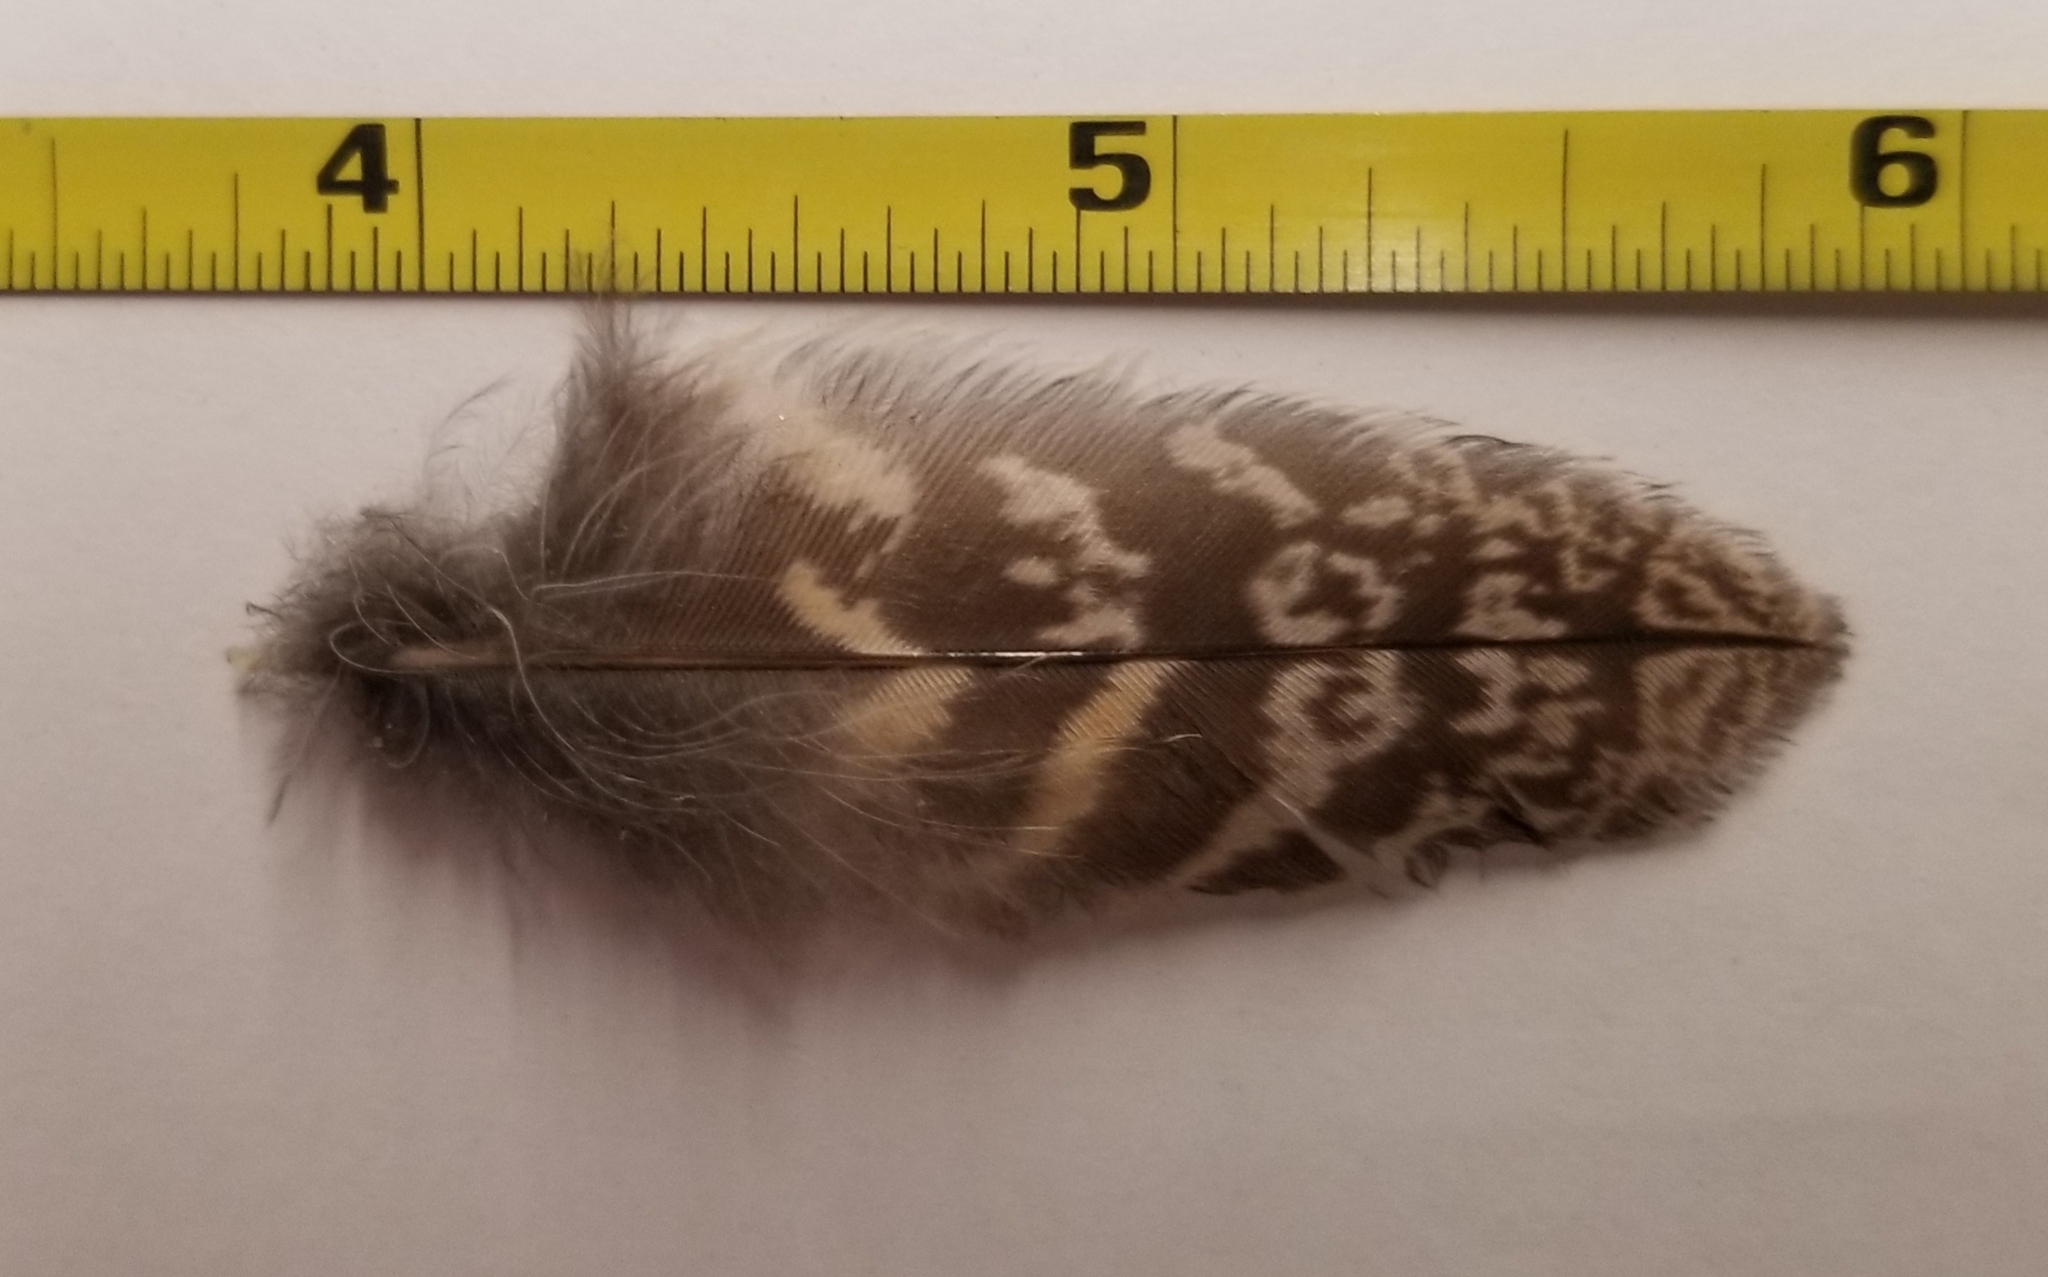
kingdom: Animalia
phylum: Chordata
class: Aves
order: Caprimulgiformes
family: Caprimulgidae
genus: Chordeiles
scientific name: Chordeiles acutipennis
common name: Lesser nighthawk
